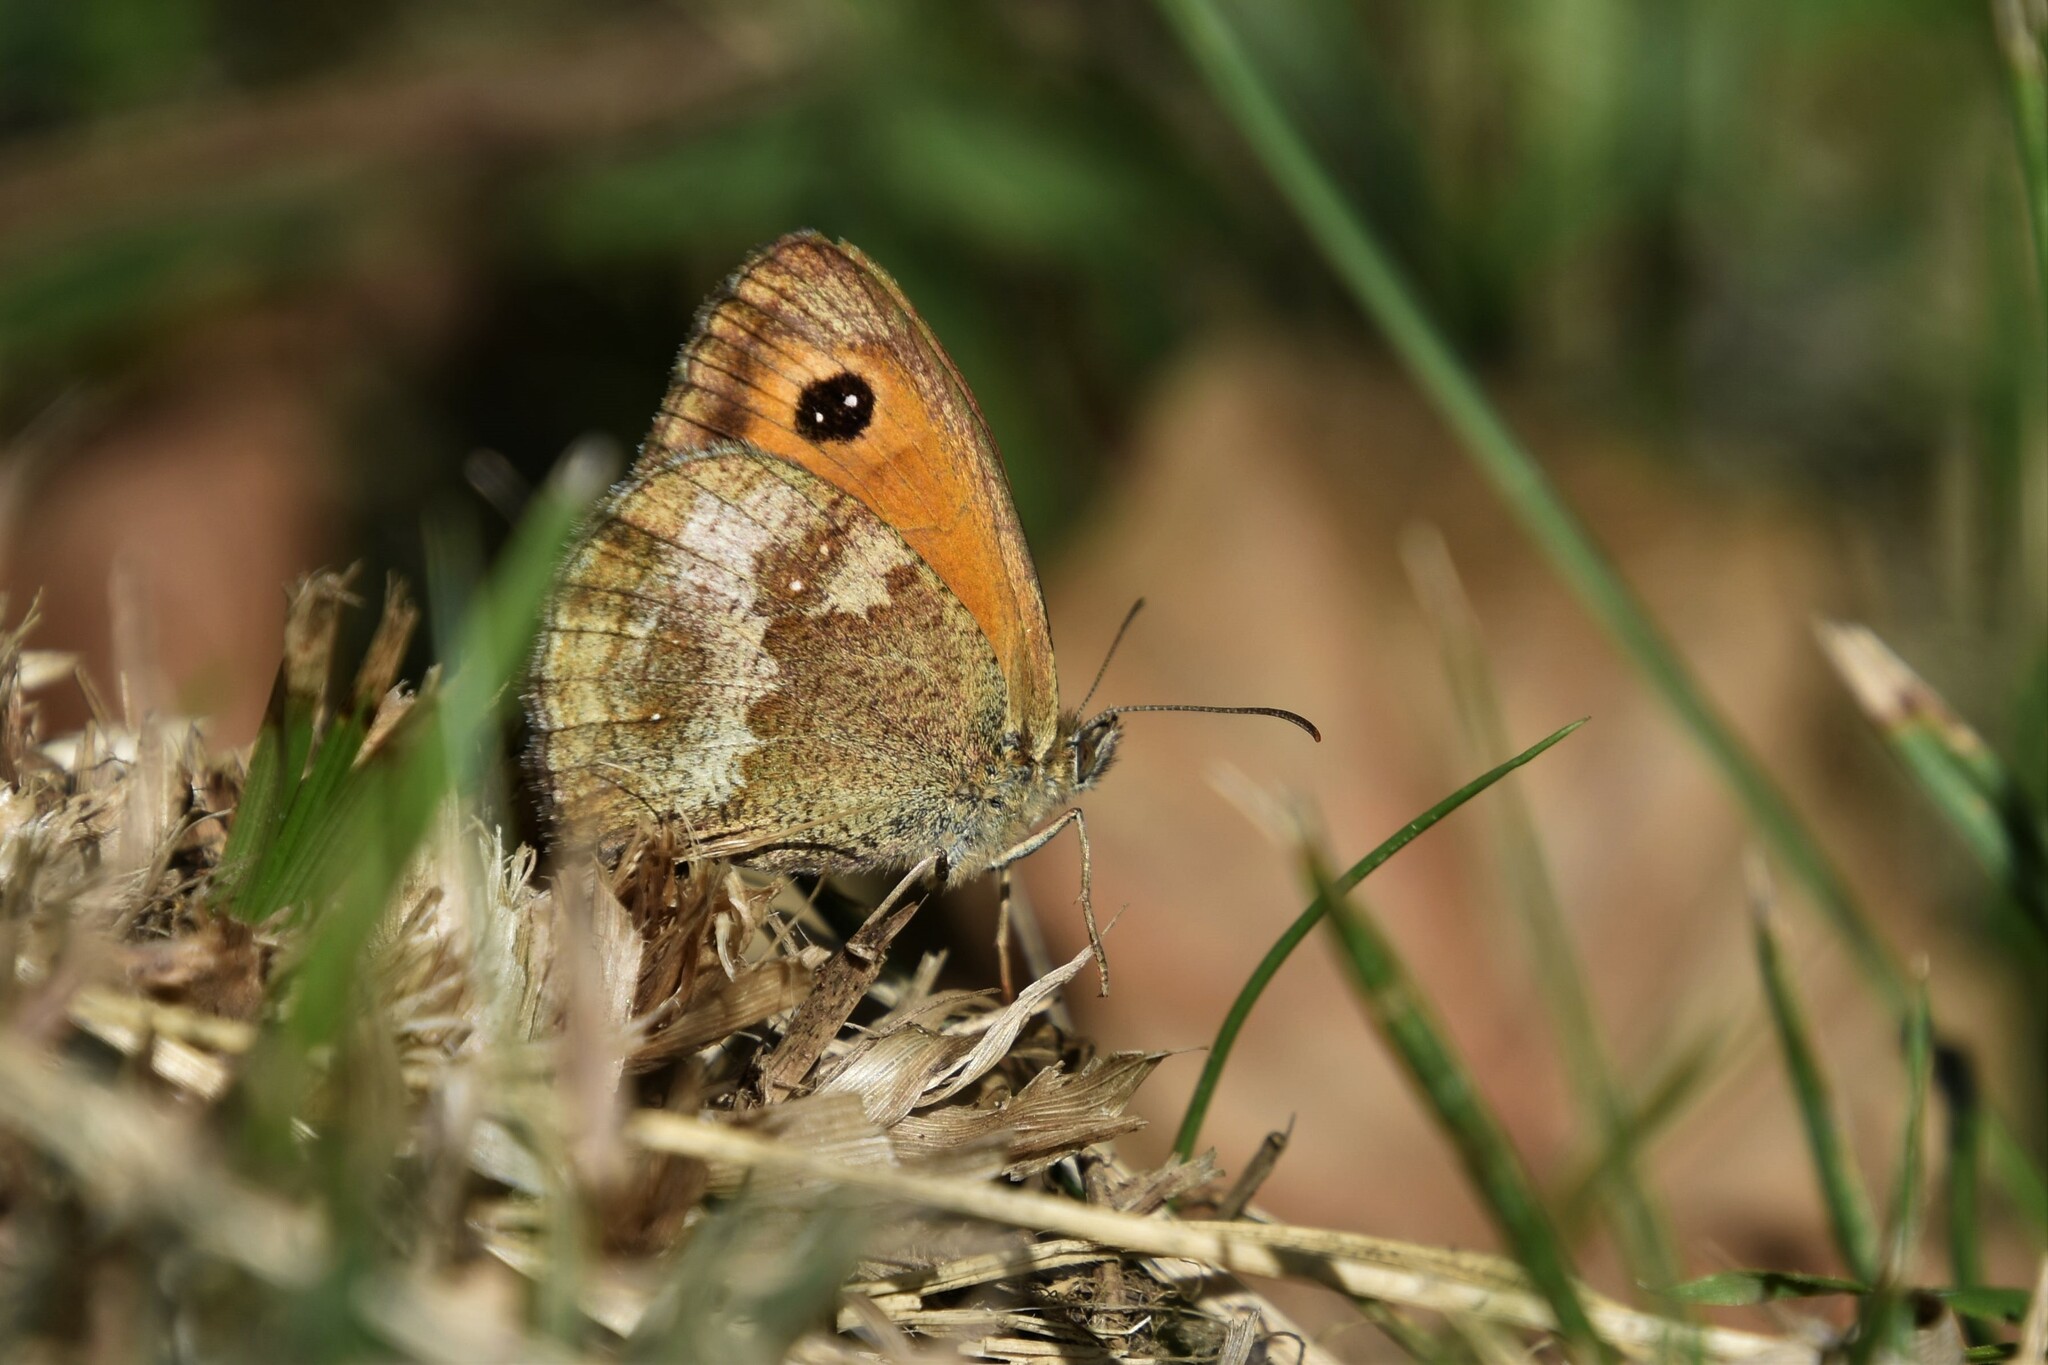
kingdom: Animalia
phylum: Arthropoda
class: Insecta
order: Lepidoptera
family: Nymphalidae
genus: Pyronia
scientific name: Pyronia tithonus
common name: Gatekeeper
